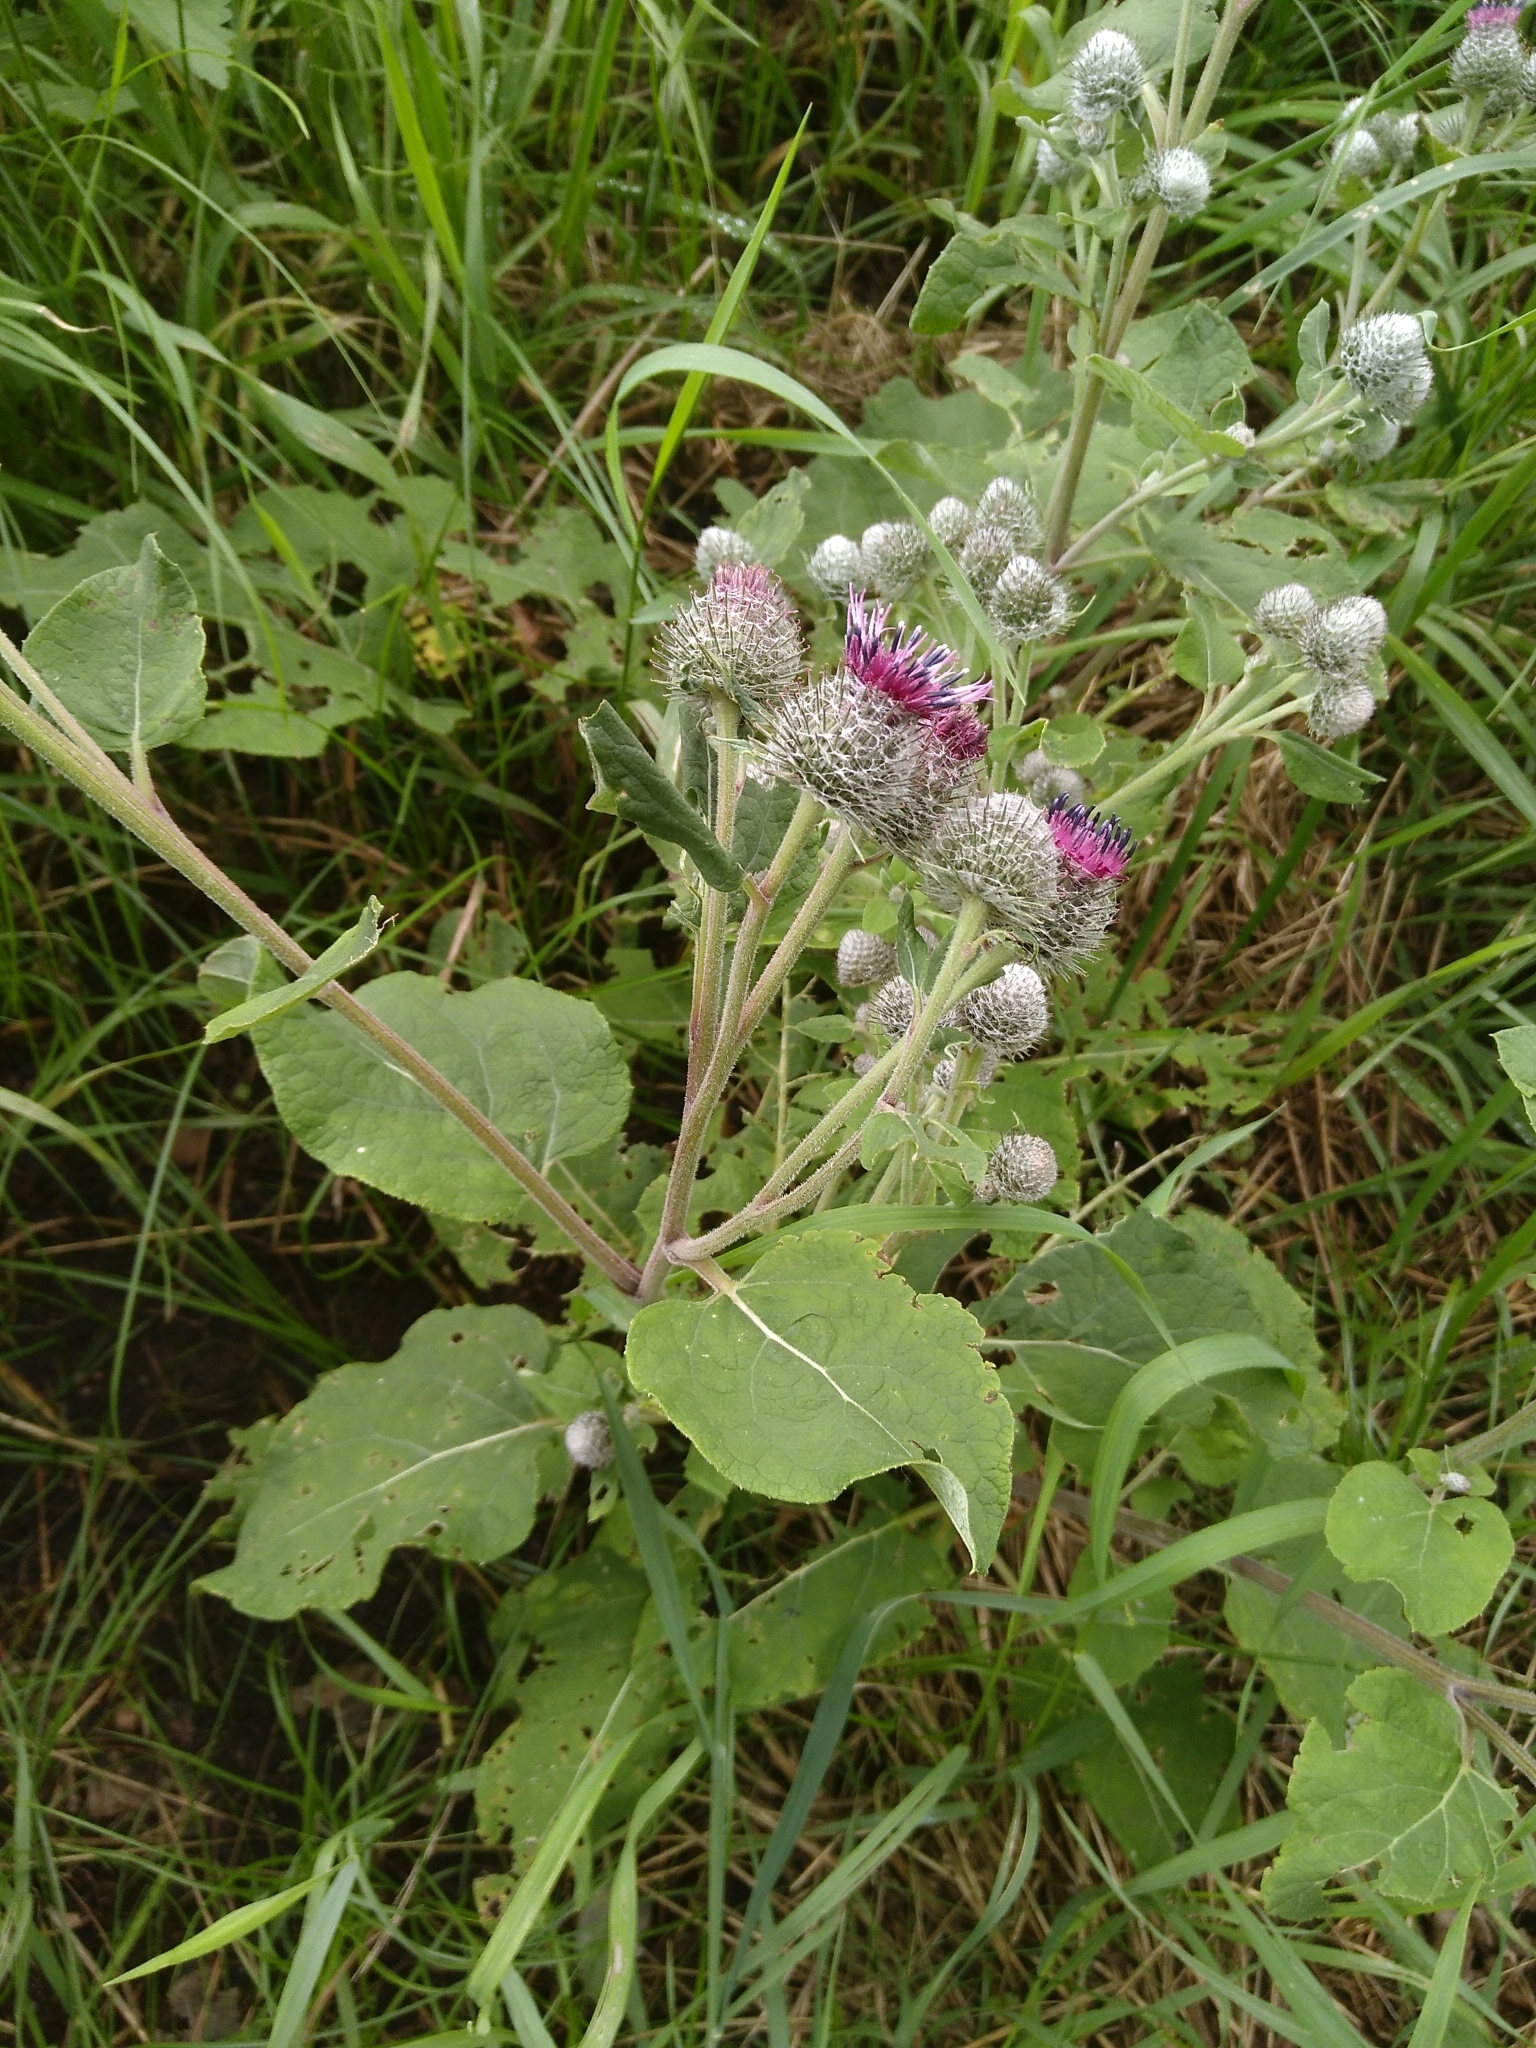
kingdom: Plantae
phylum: Tracheophyta
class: Magnoliopsida
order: Asterales
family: Asteraceae
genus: Arctium
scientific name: Arctium tomentosum
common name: Woolly burdock
